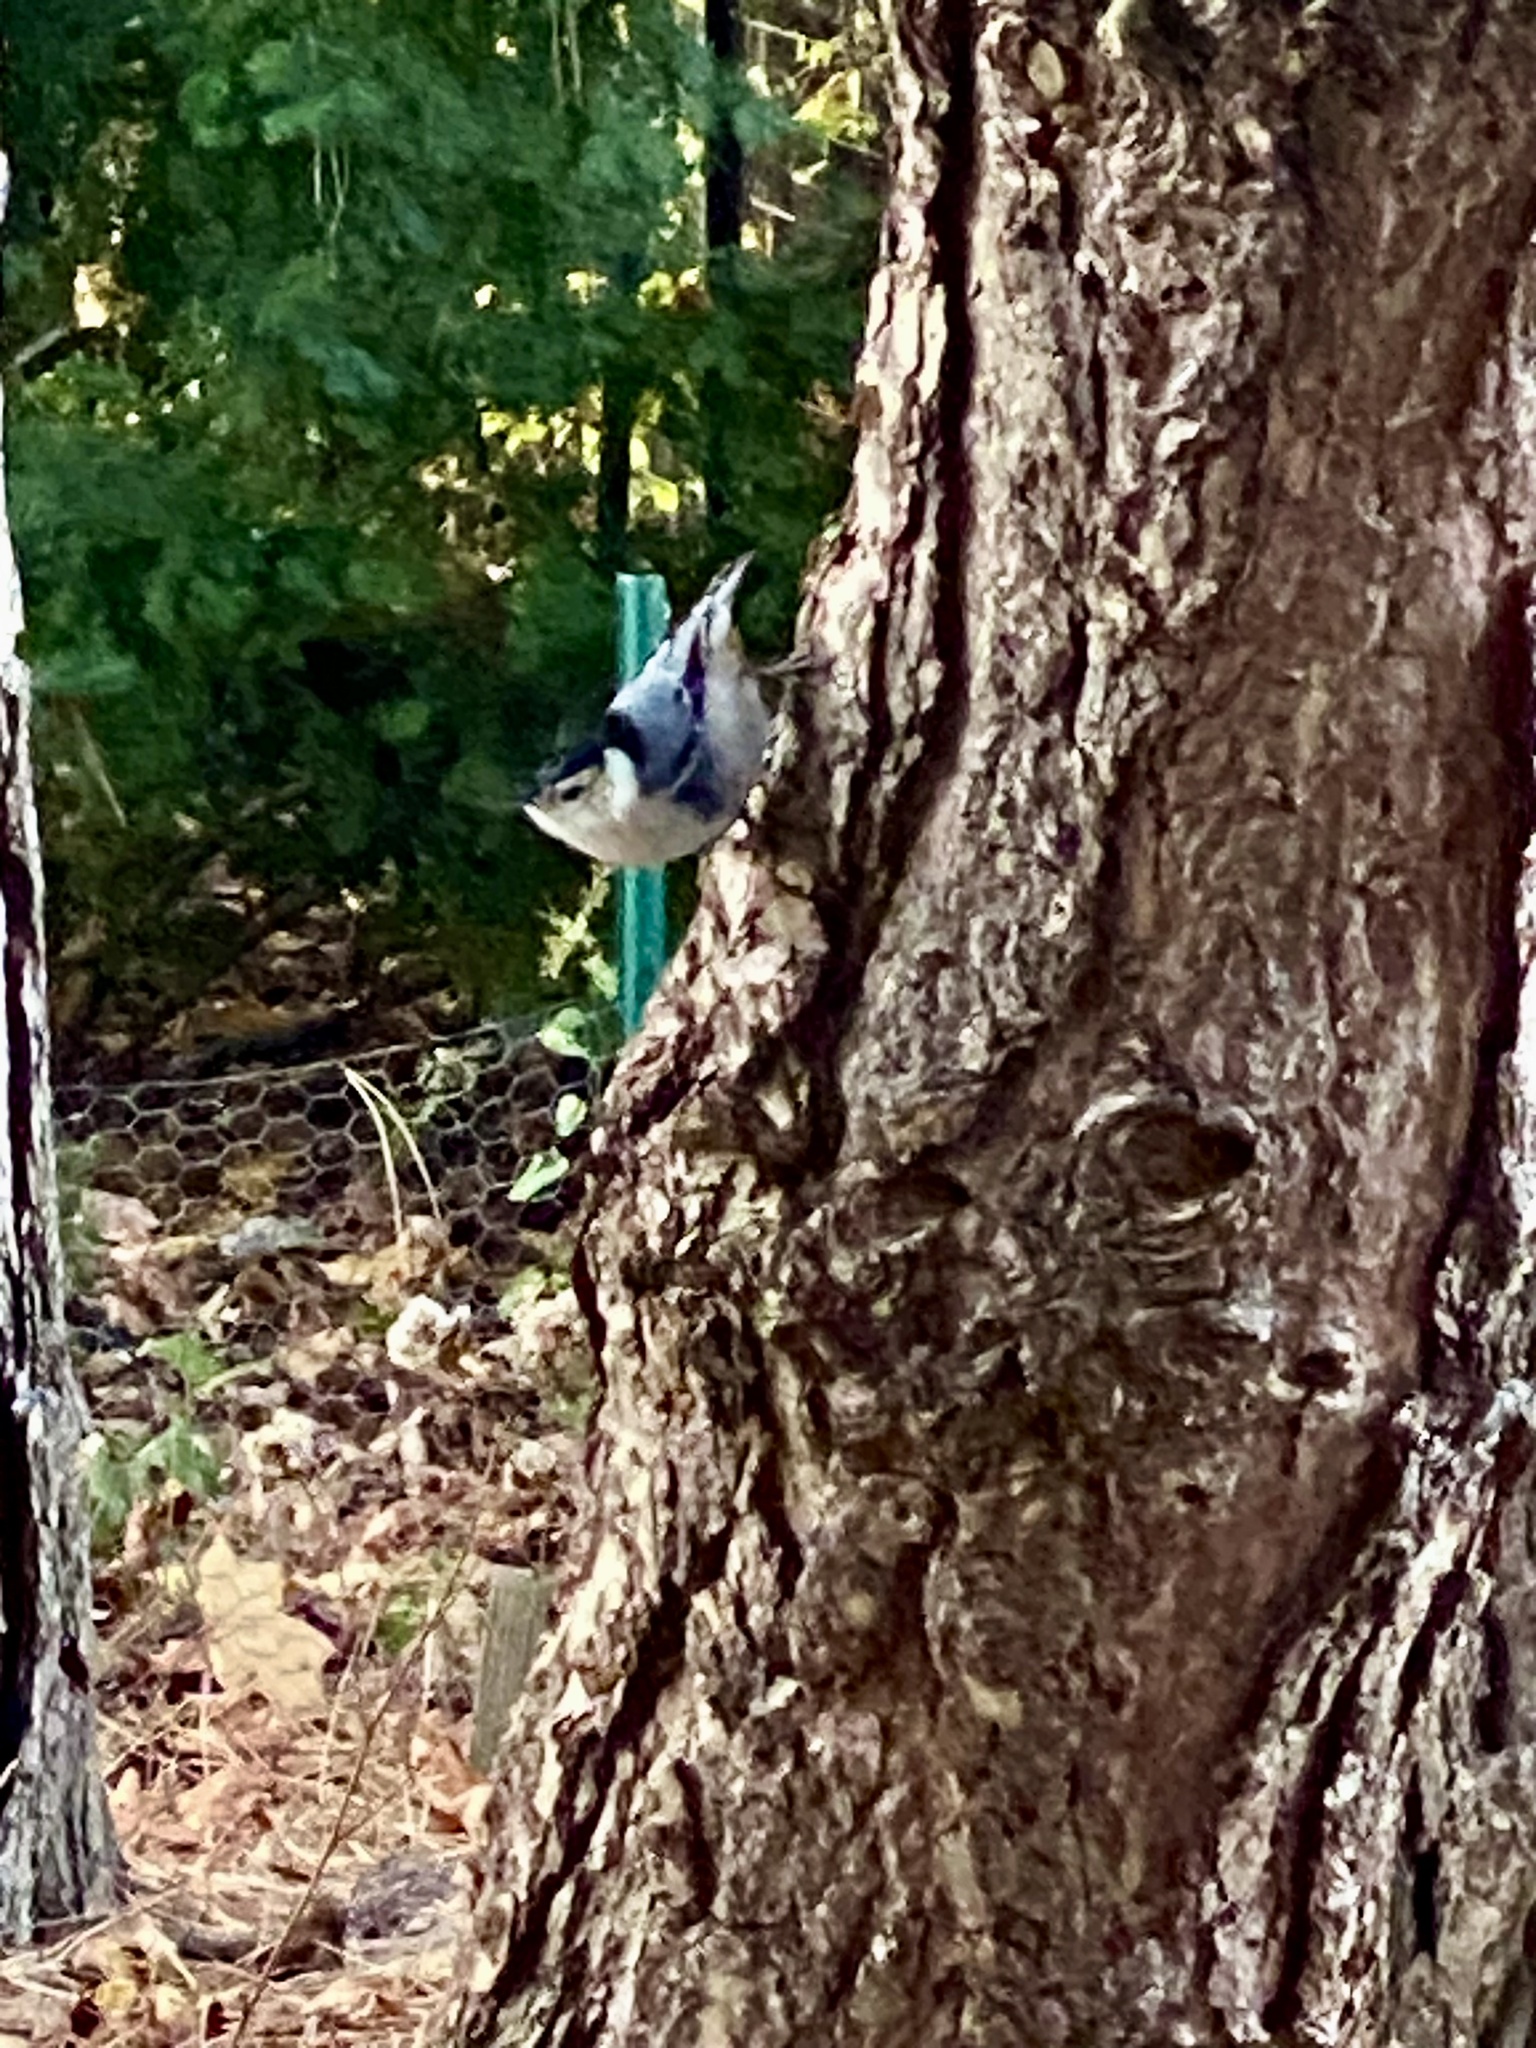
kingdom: Animalia
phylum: Chordata
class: Aves
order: Passeriformes
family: Sittidae
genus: Sitta
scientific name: Sitta carolinensis
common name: White-breasted nuthatch
